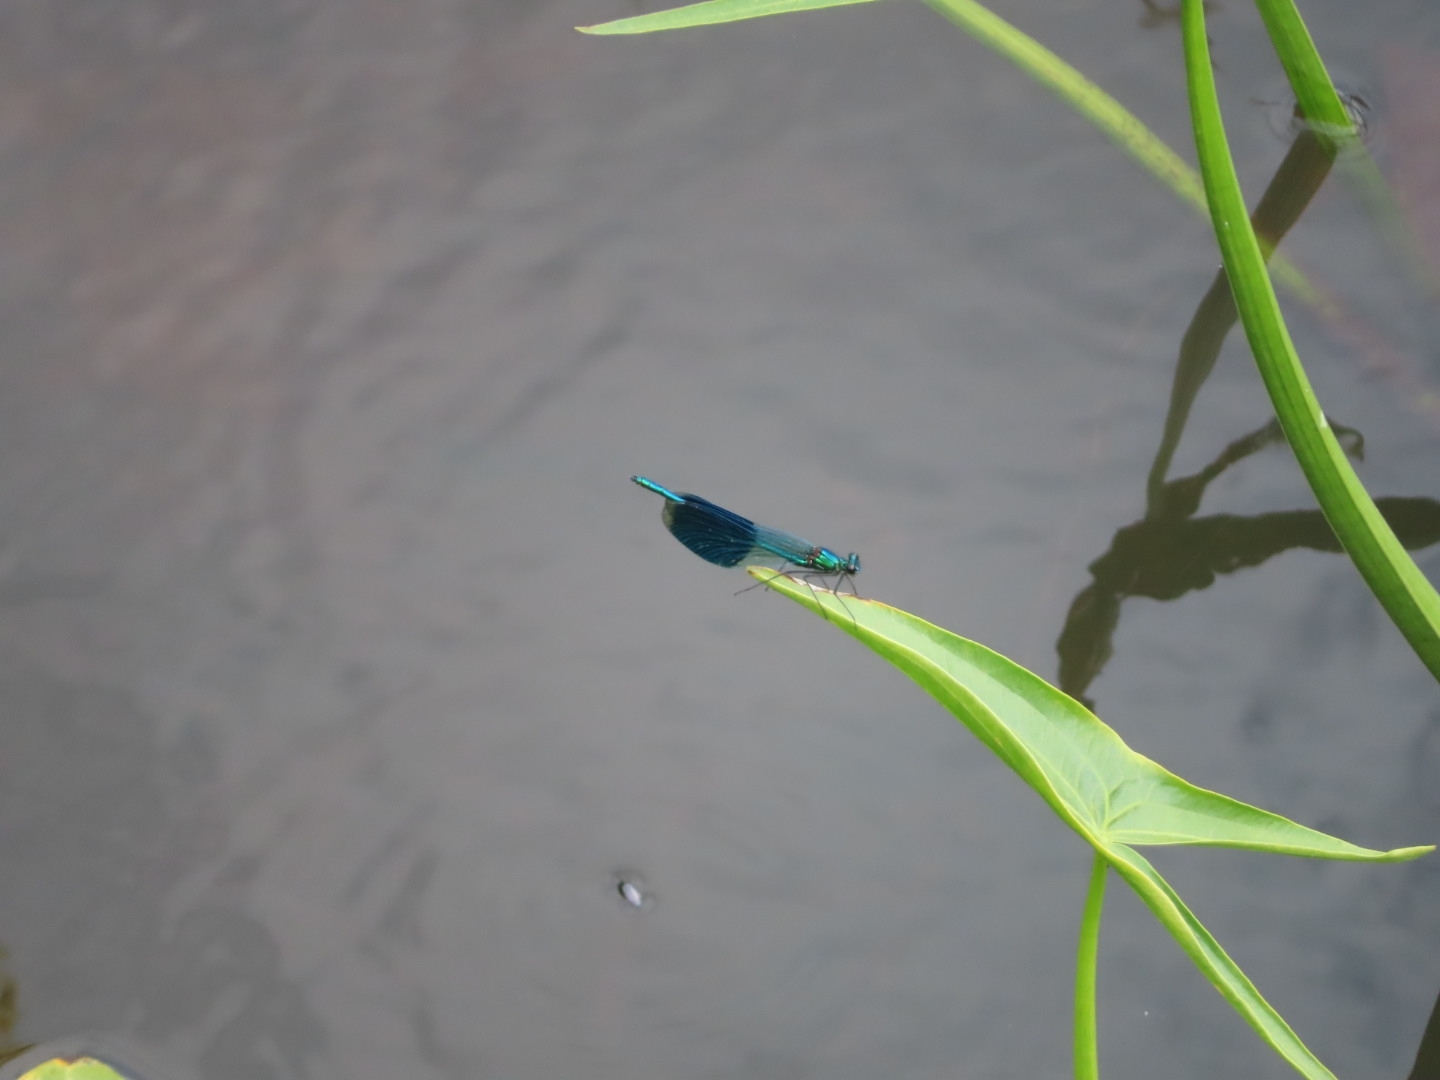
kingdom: Animalia
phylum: Arthropoda
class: Insecta
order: Odonata
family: Calopterygidae
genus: Calopteryx
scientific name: Calopteryx splendens
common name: Banded demoiselle
